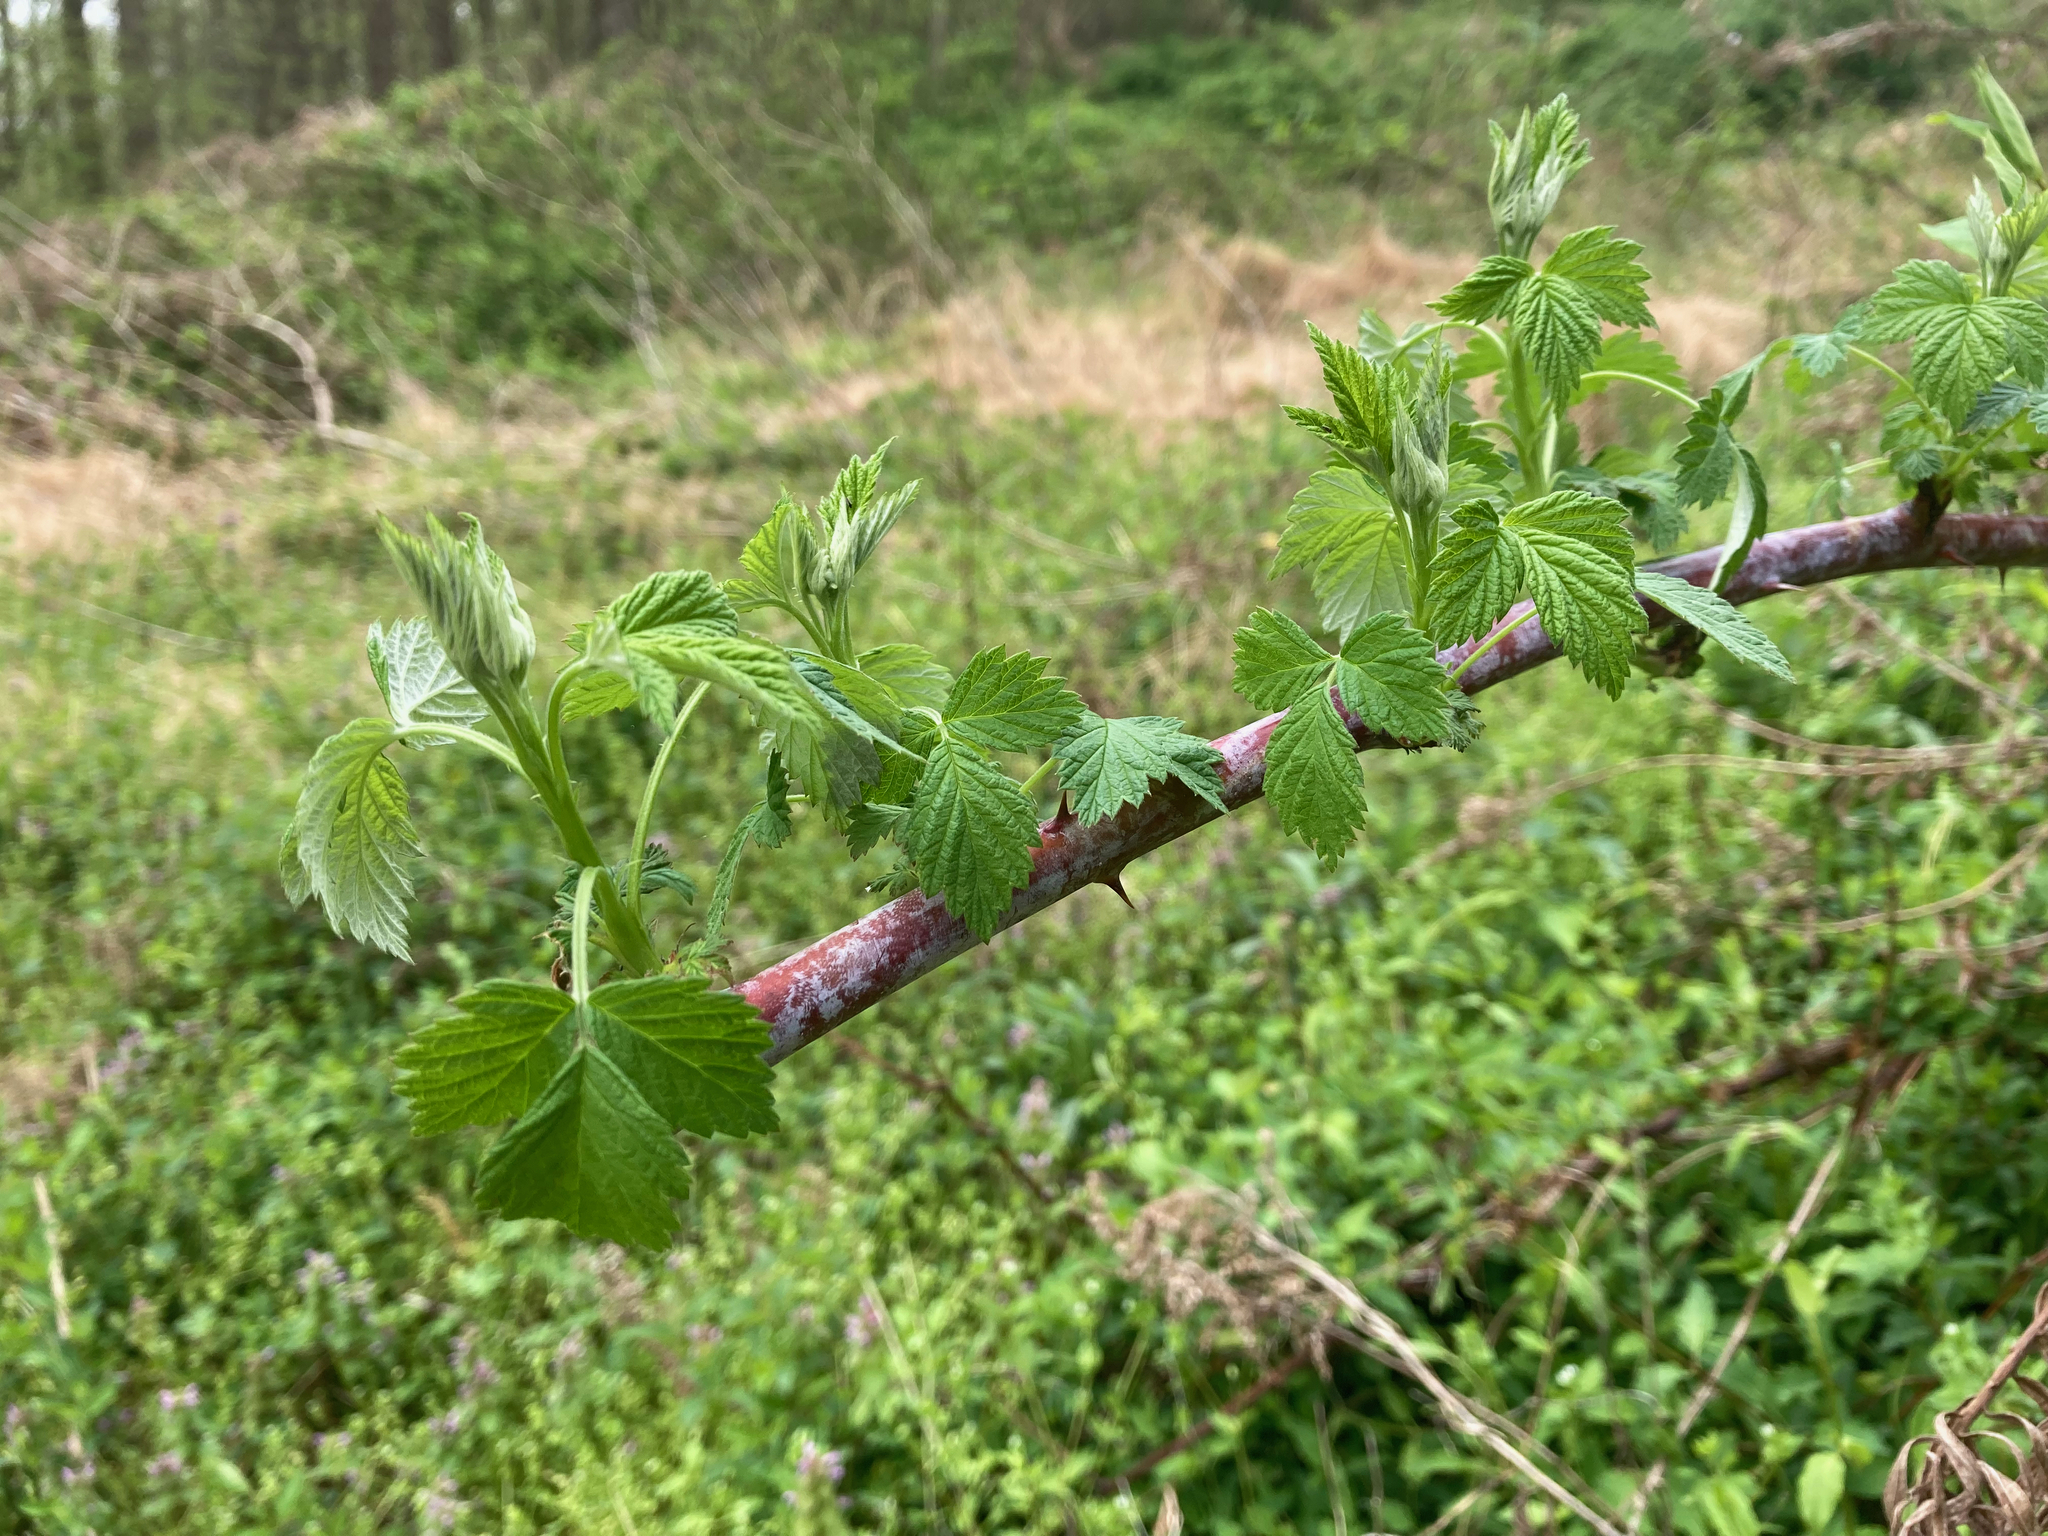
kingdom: Plantae
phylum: Tracheophyta
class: Magnoliopsida
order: Rosales
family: Rosaceae
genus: Rubus
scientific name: Rubus occidentalis
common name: Black raspberry
